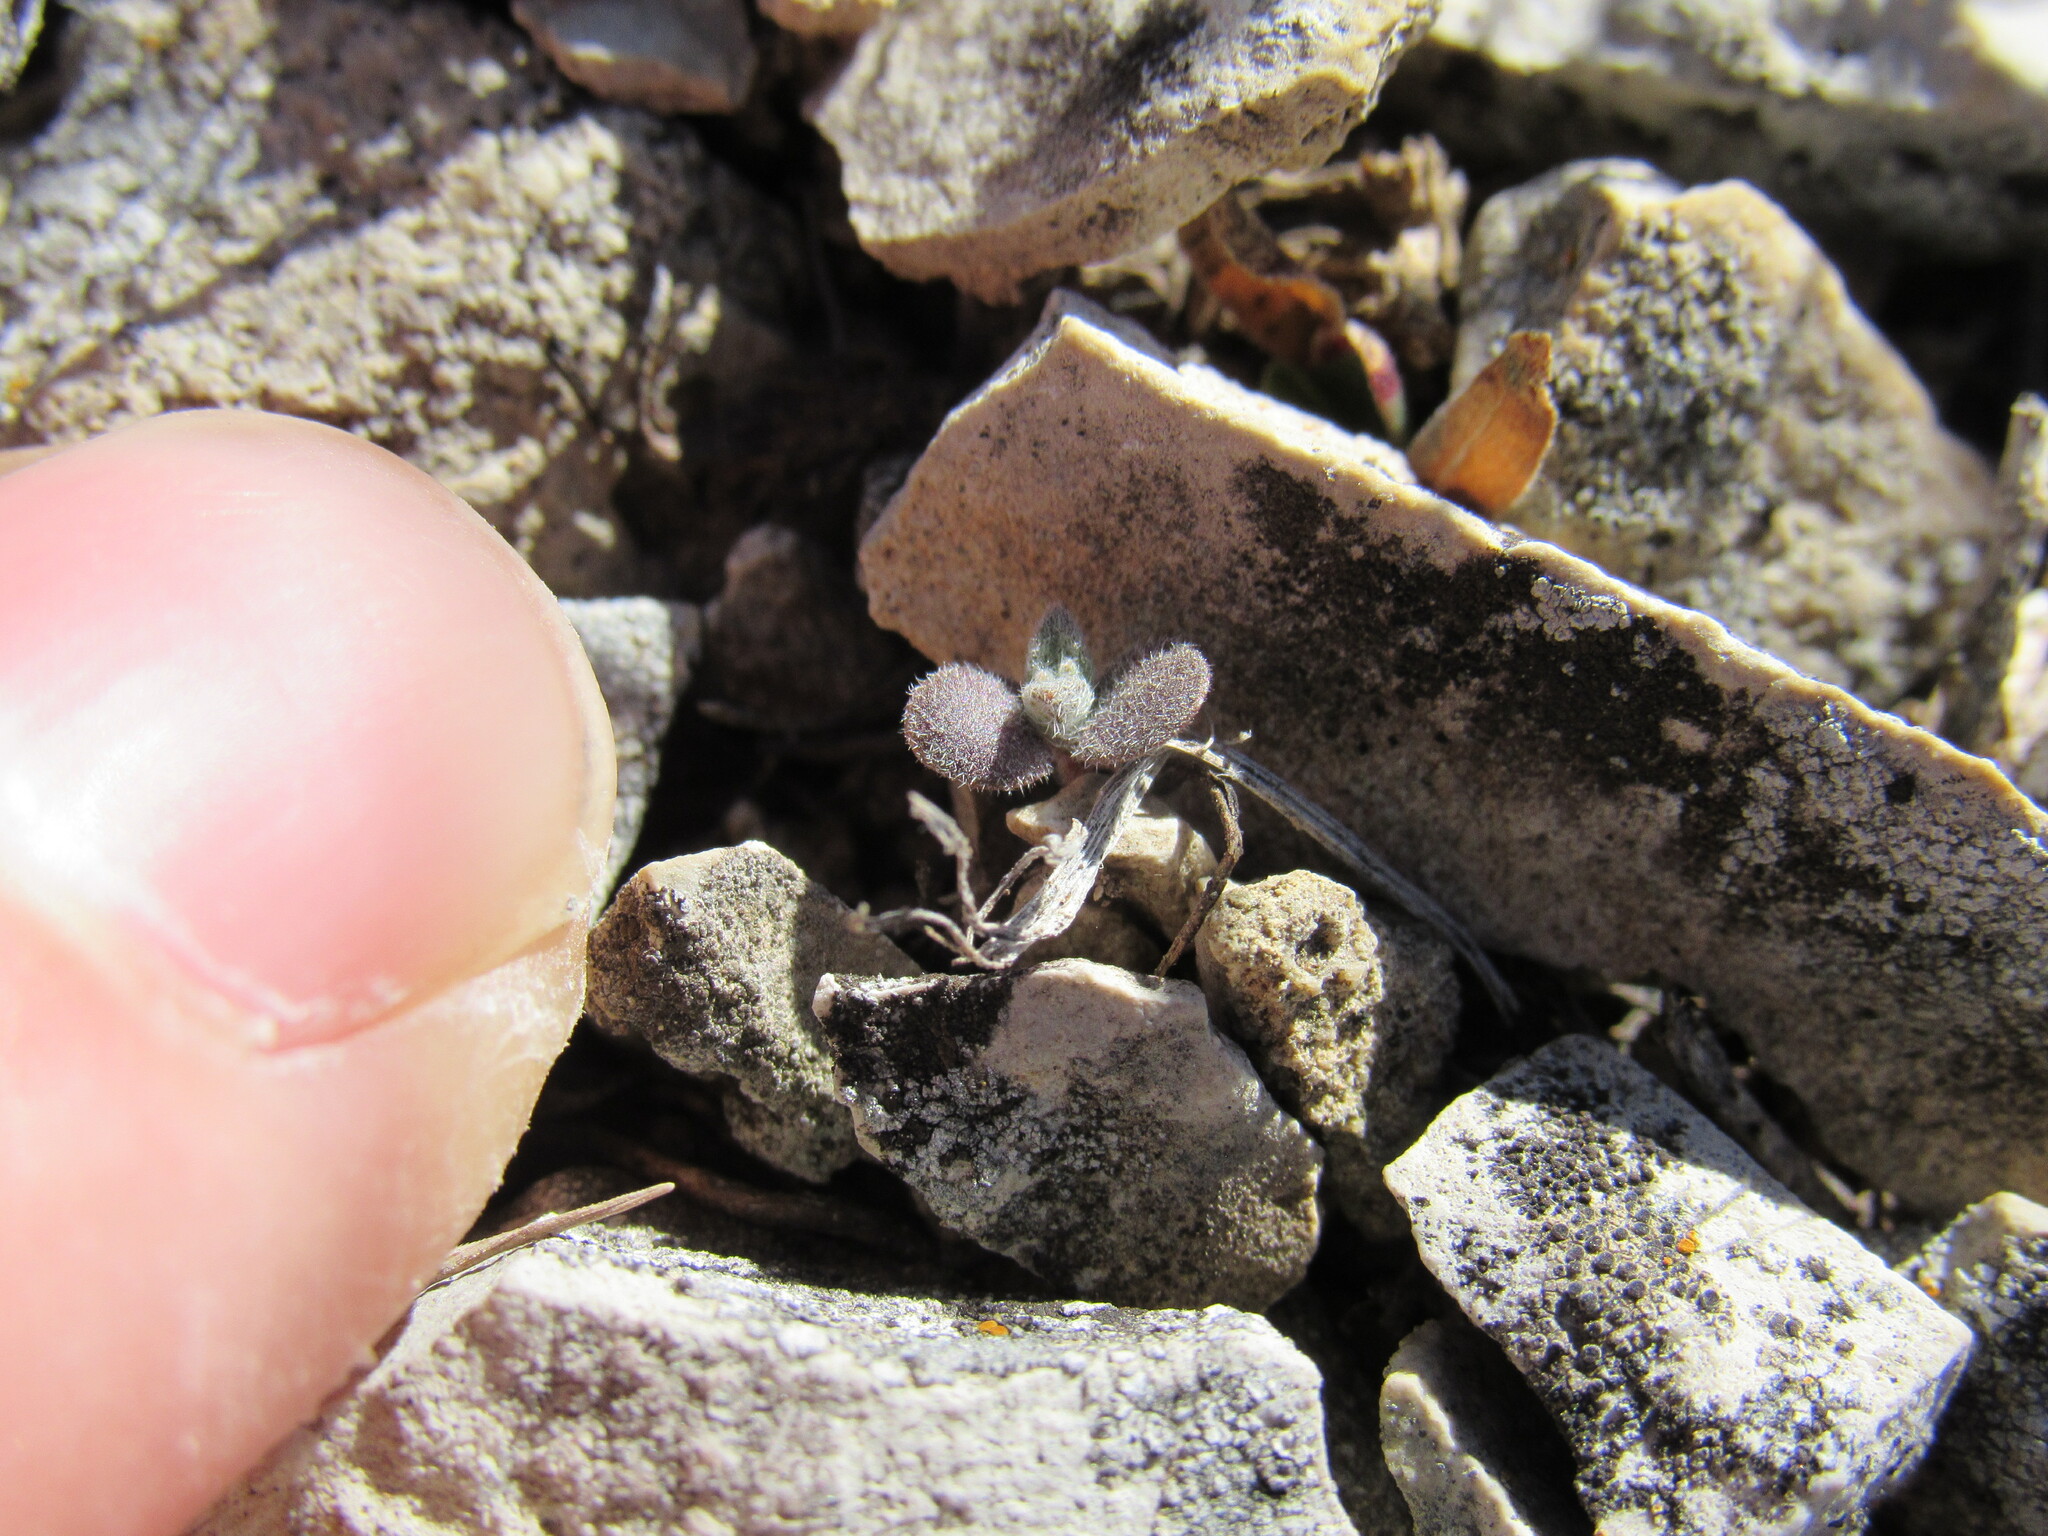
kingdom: Plantae
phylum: Tracheophyta
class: Magnoliopsida
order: Brassicales
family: Brassicaceae
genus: Alyssum
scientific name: Alyssum simplex
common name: Alyssum
